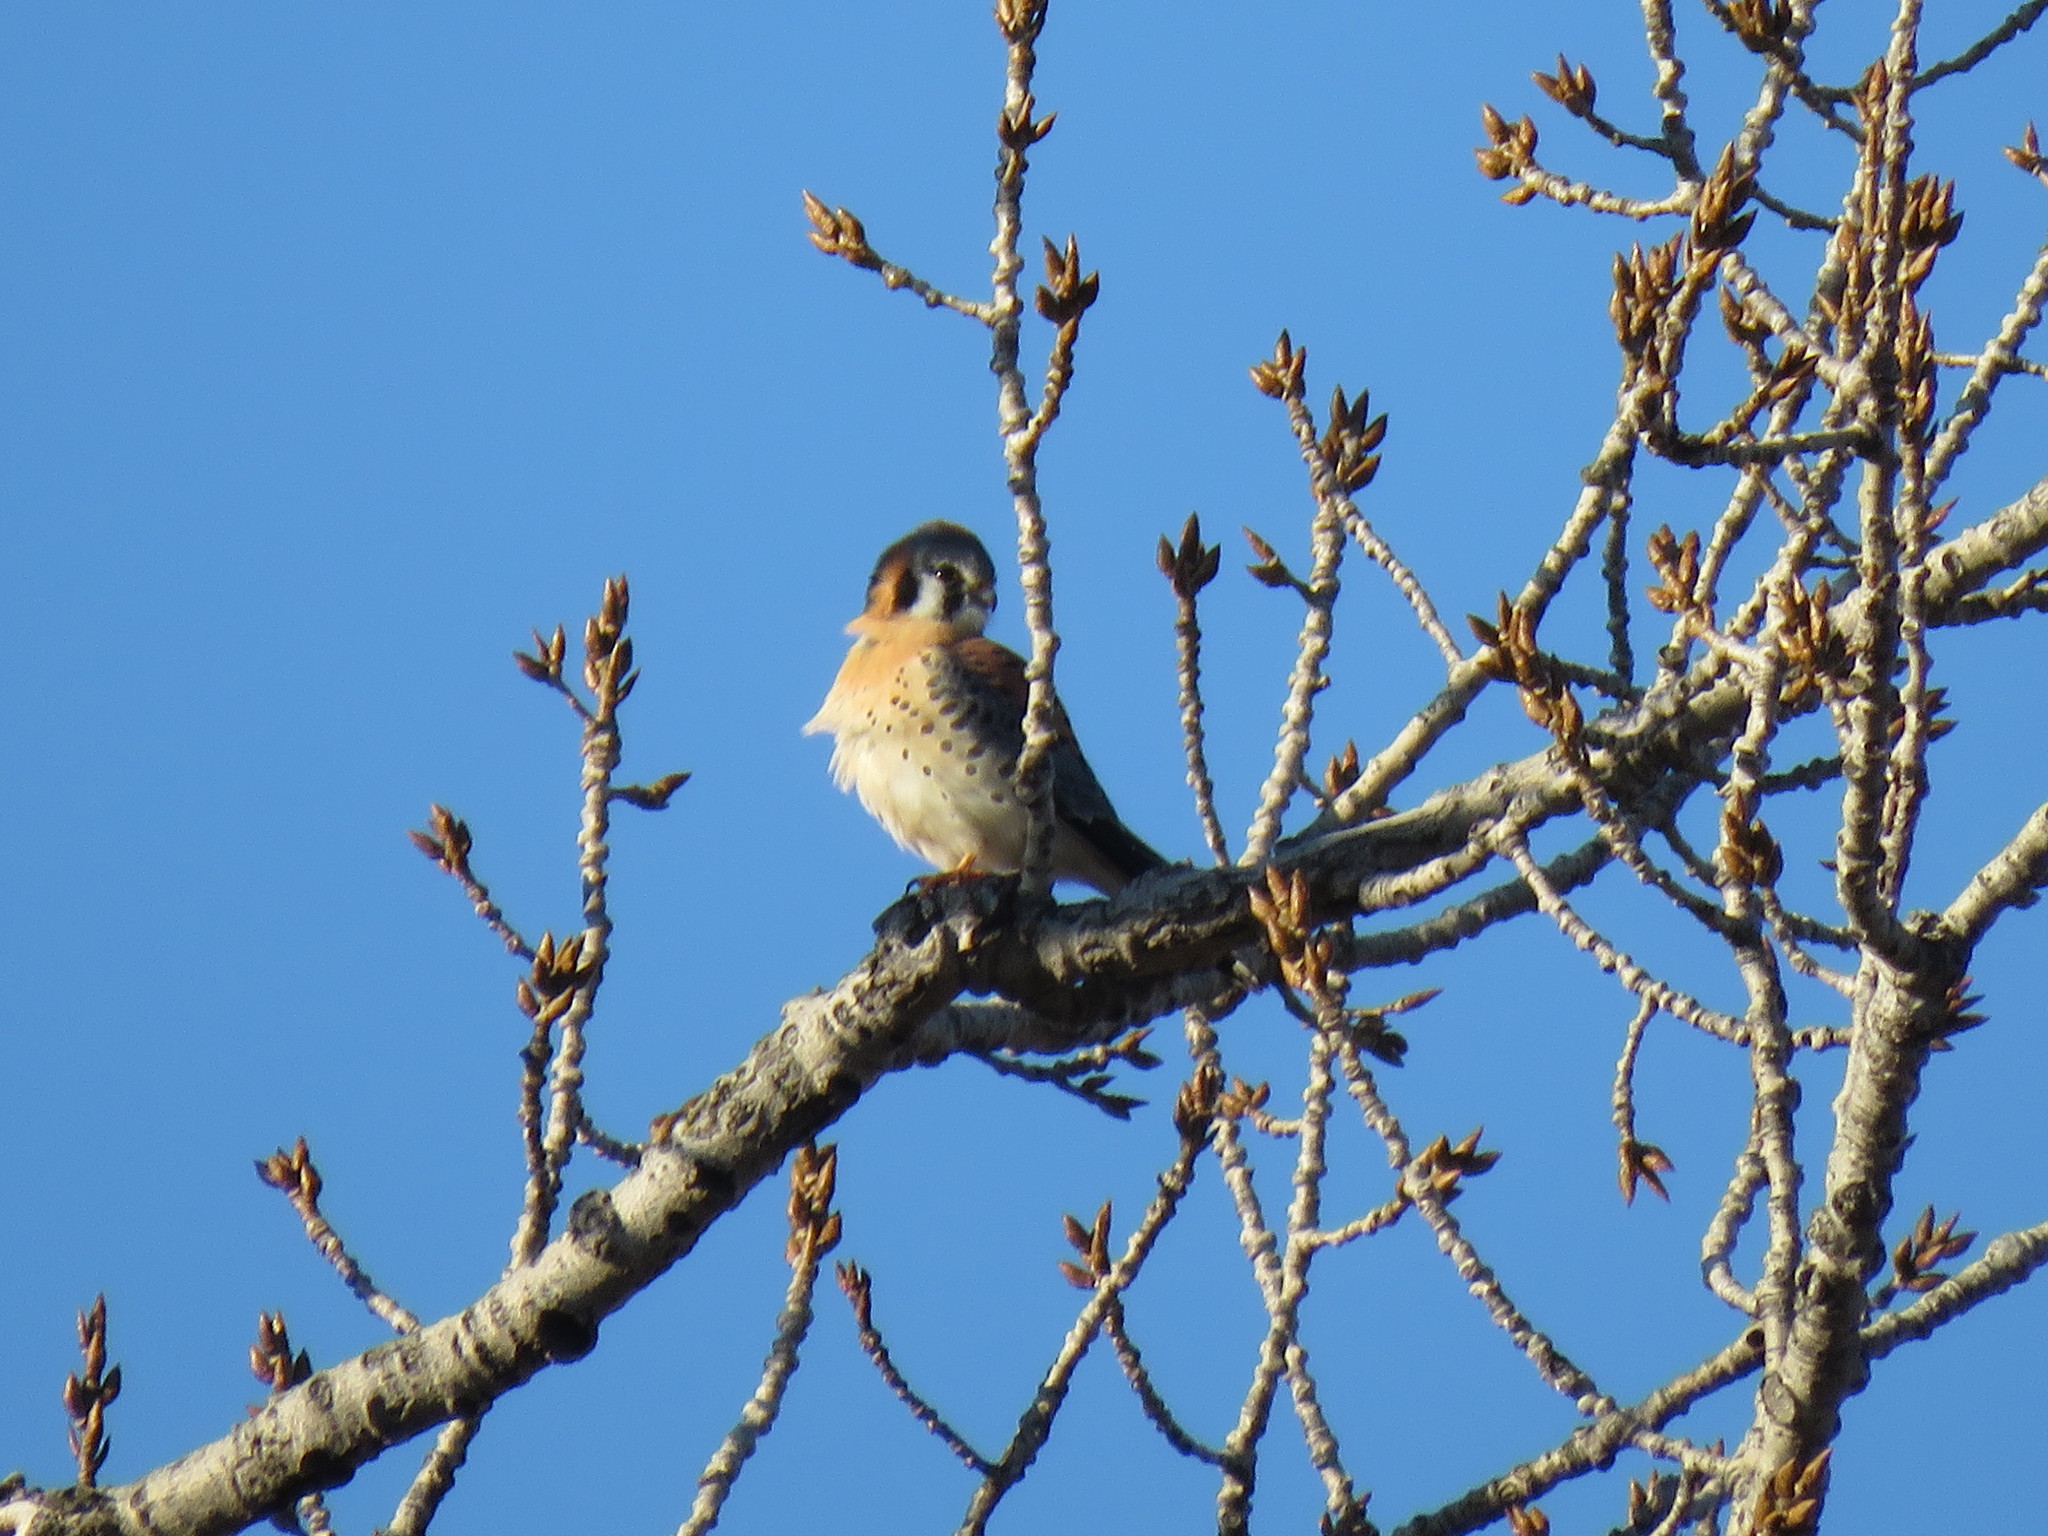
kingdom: Animalia
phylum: Chordata
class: Aves
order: Falconiformes
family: Falconidae
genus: Falco
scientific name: Falco sparverius
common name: American kestrel
